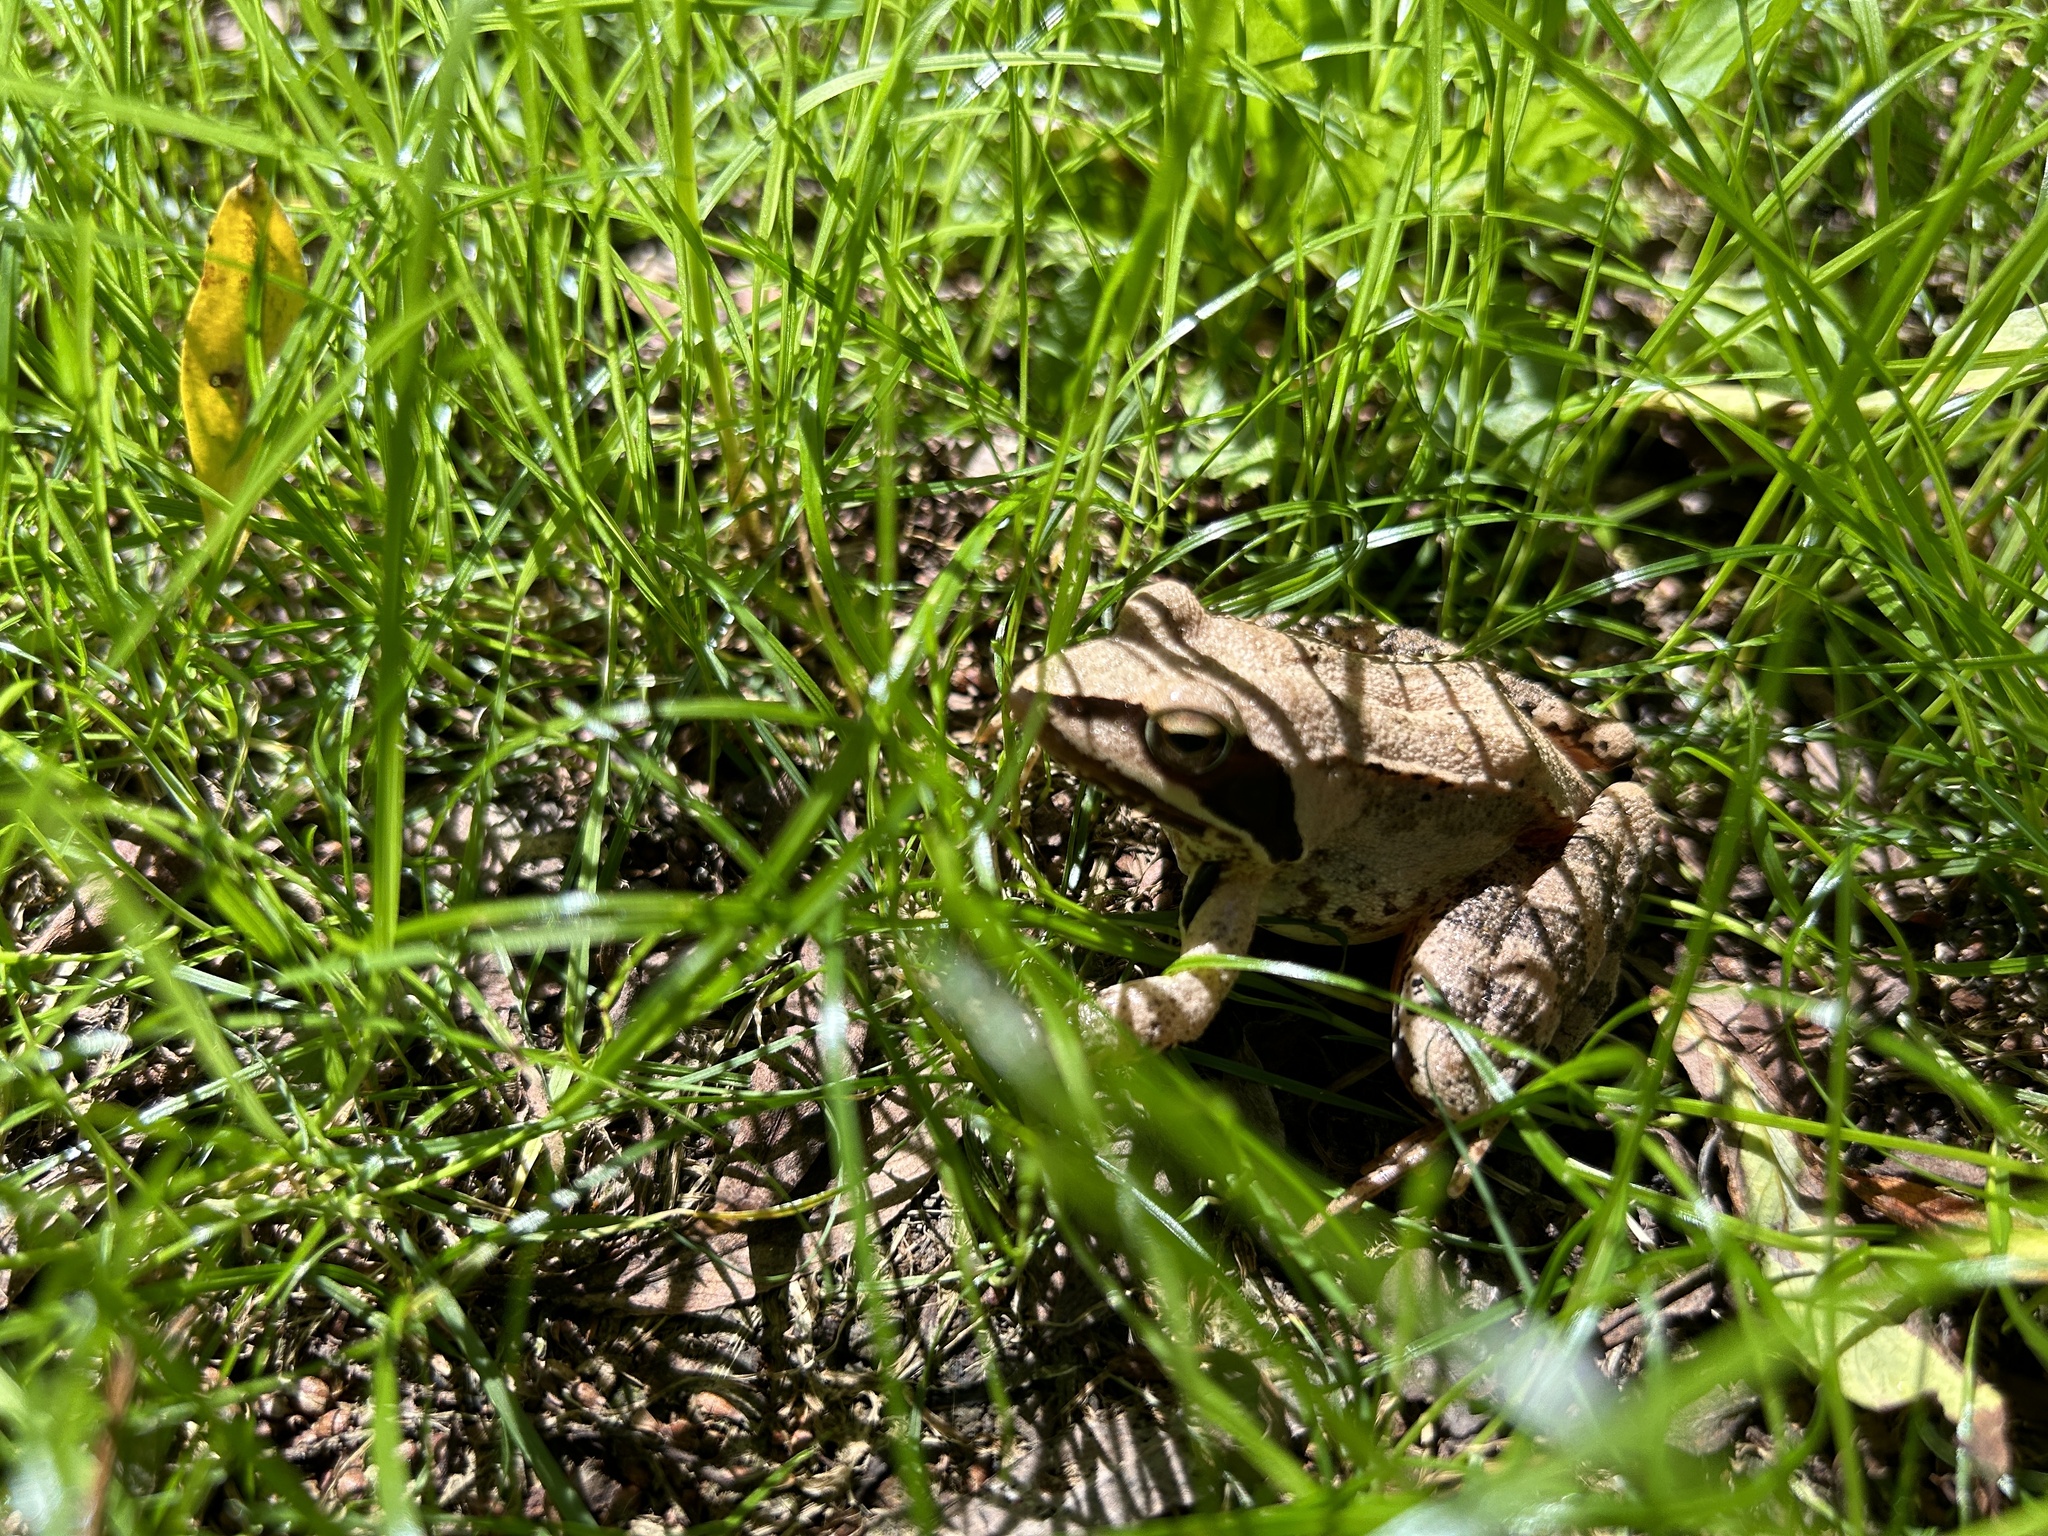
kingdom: Animalia
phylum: Chordata
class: Amphibia
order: Anura
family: Ranidae
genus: Rana
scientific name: Rana dalmatina
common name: Agile frog
